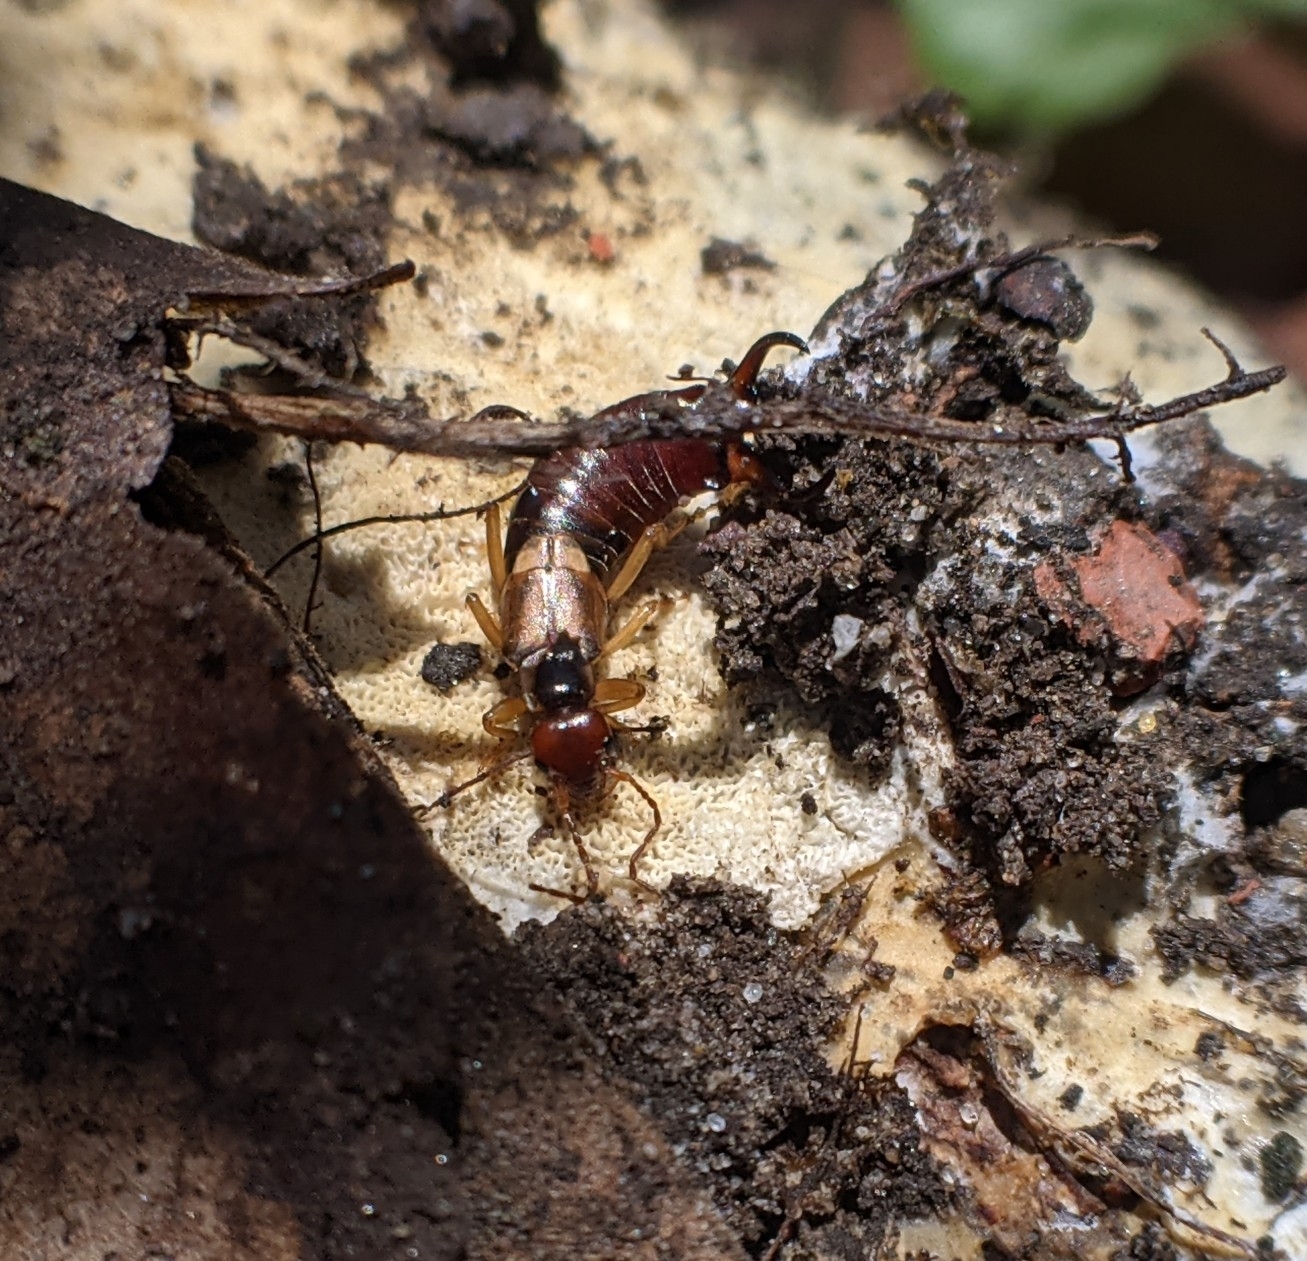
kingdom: Animalia
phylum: Arthropoda
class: Insecta
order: Dermaptera
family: Forficulidae
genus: Forficula
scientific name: Forficula
